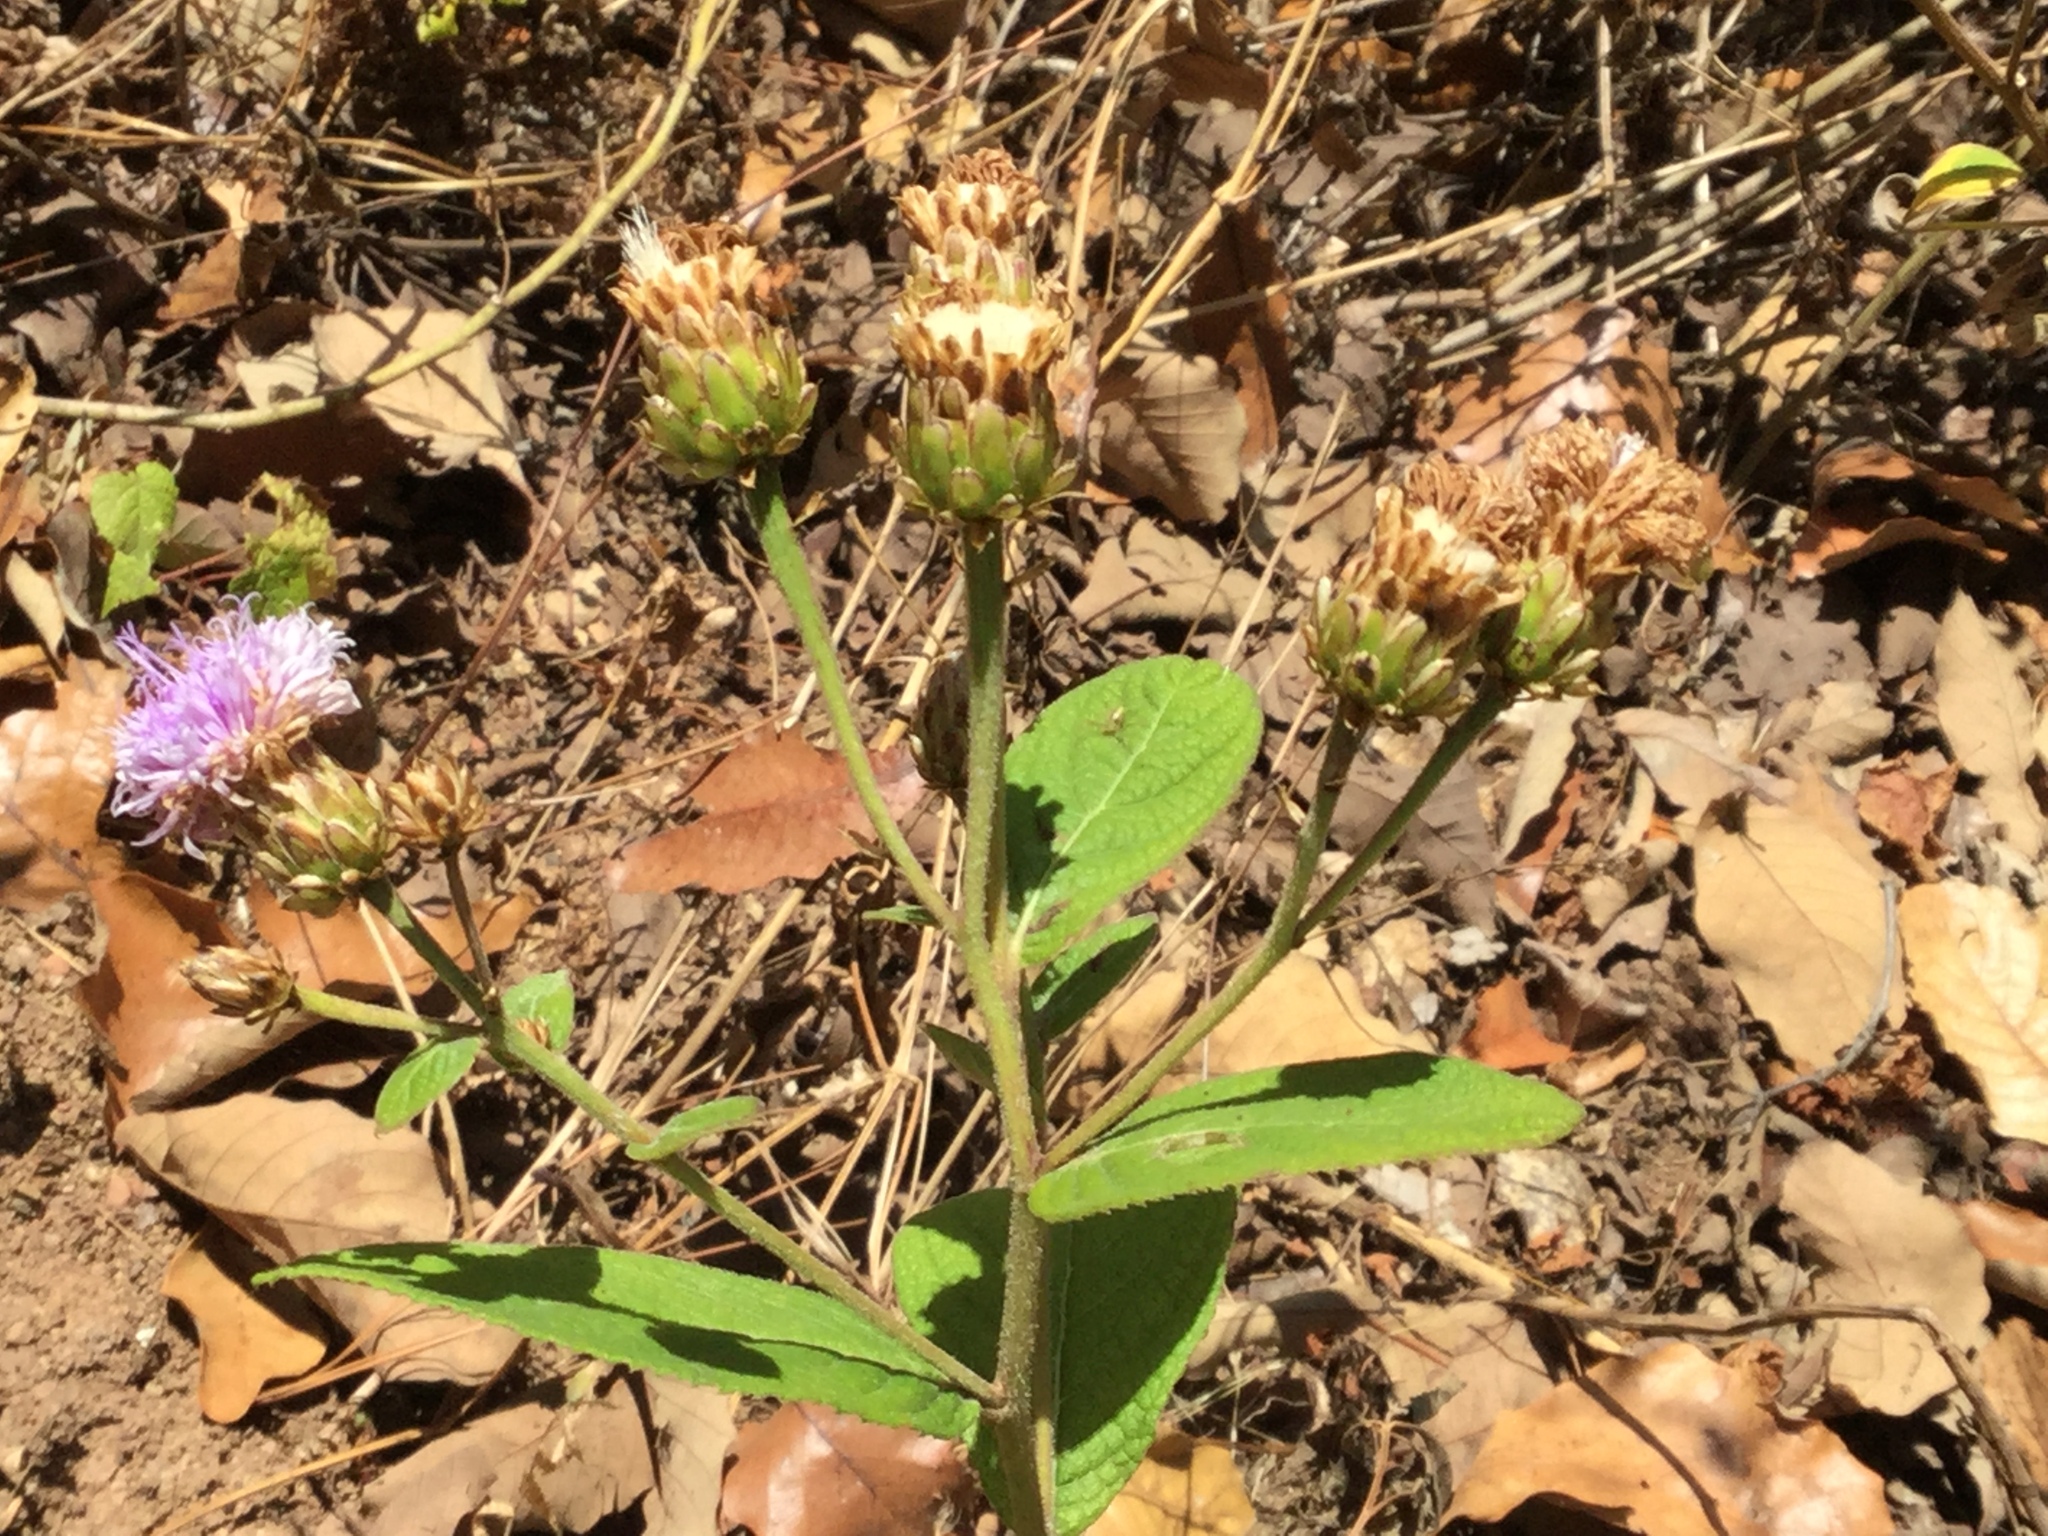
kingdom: Plantae
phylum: Tracheophyta
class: Magnoliopsida
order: Asterales
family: Asteraceae
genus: Vernonanthura
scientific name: Vernonanthura alamanii
